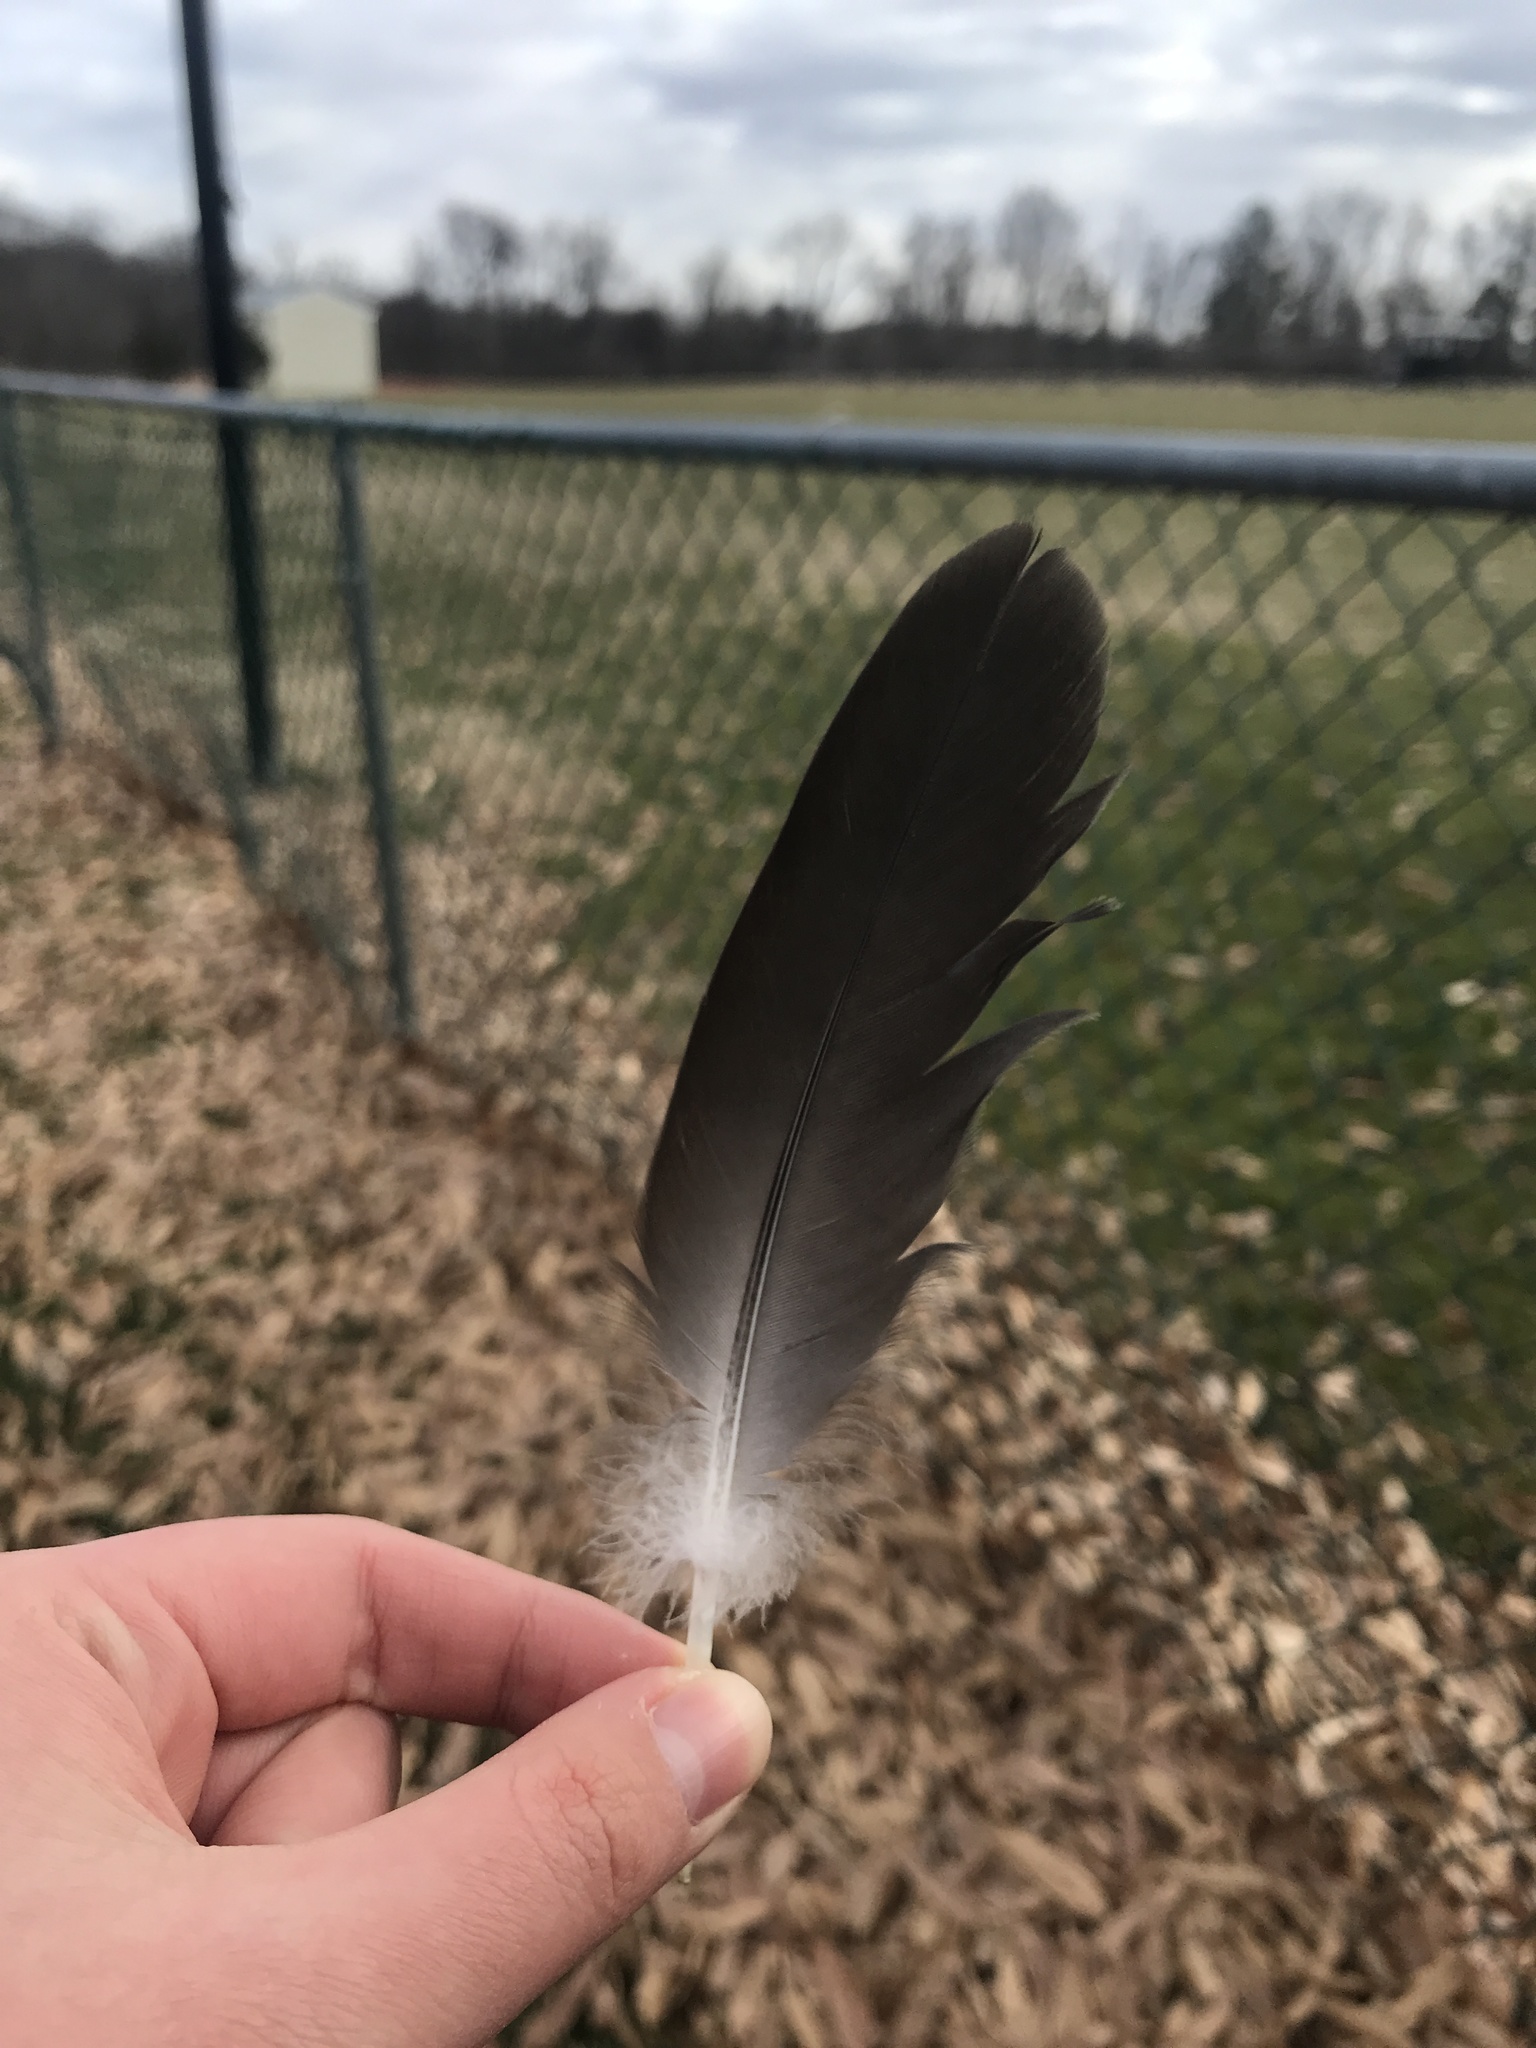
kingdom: Animalia
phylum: Chordata
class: Aves
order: Anseriformes
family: Anatidae
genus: Branta
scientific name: Branta canadensis
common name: Canada goose
